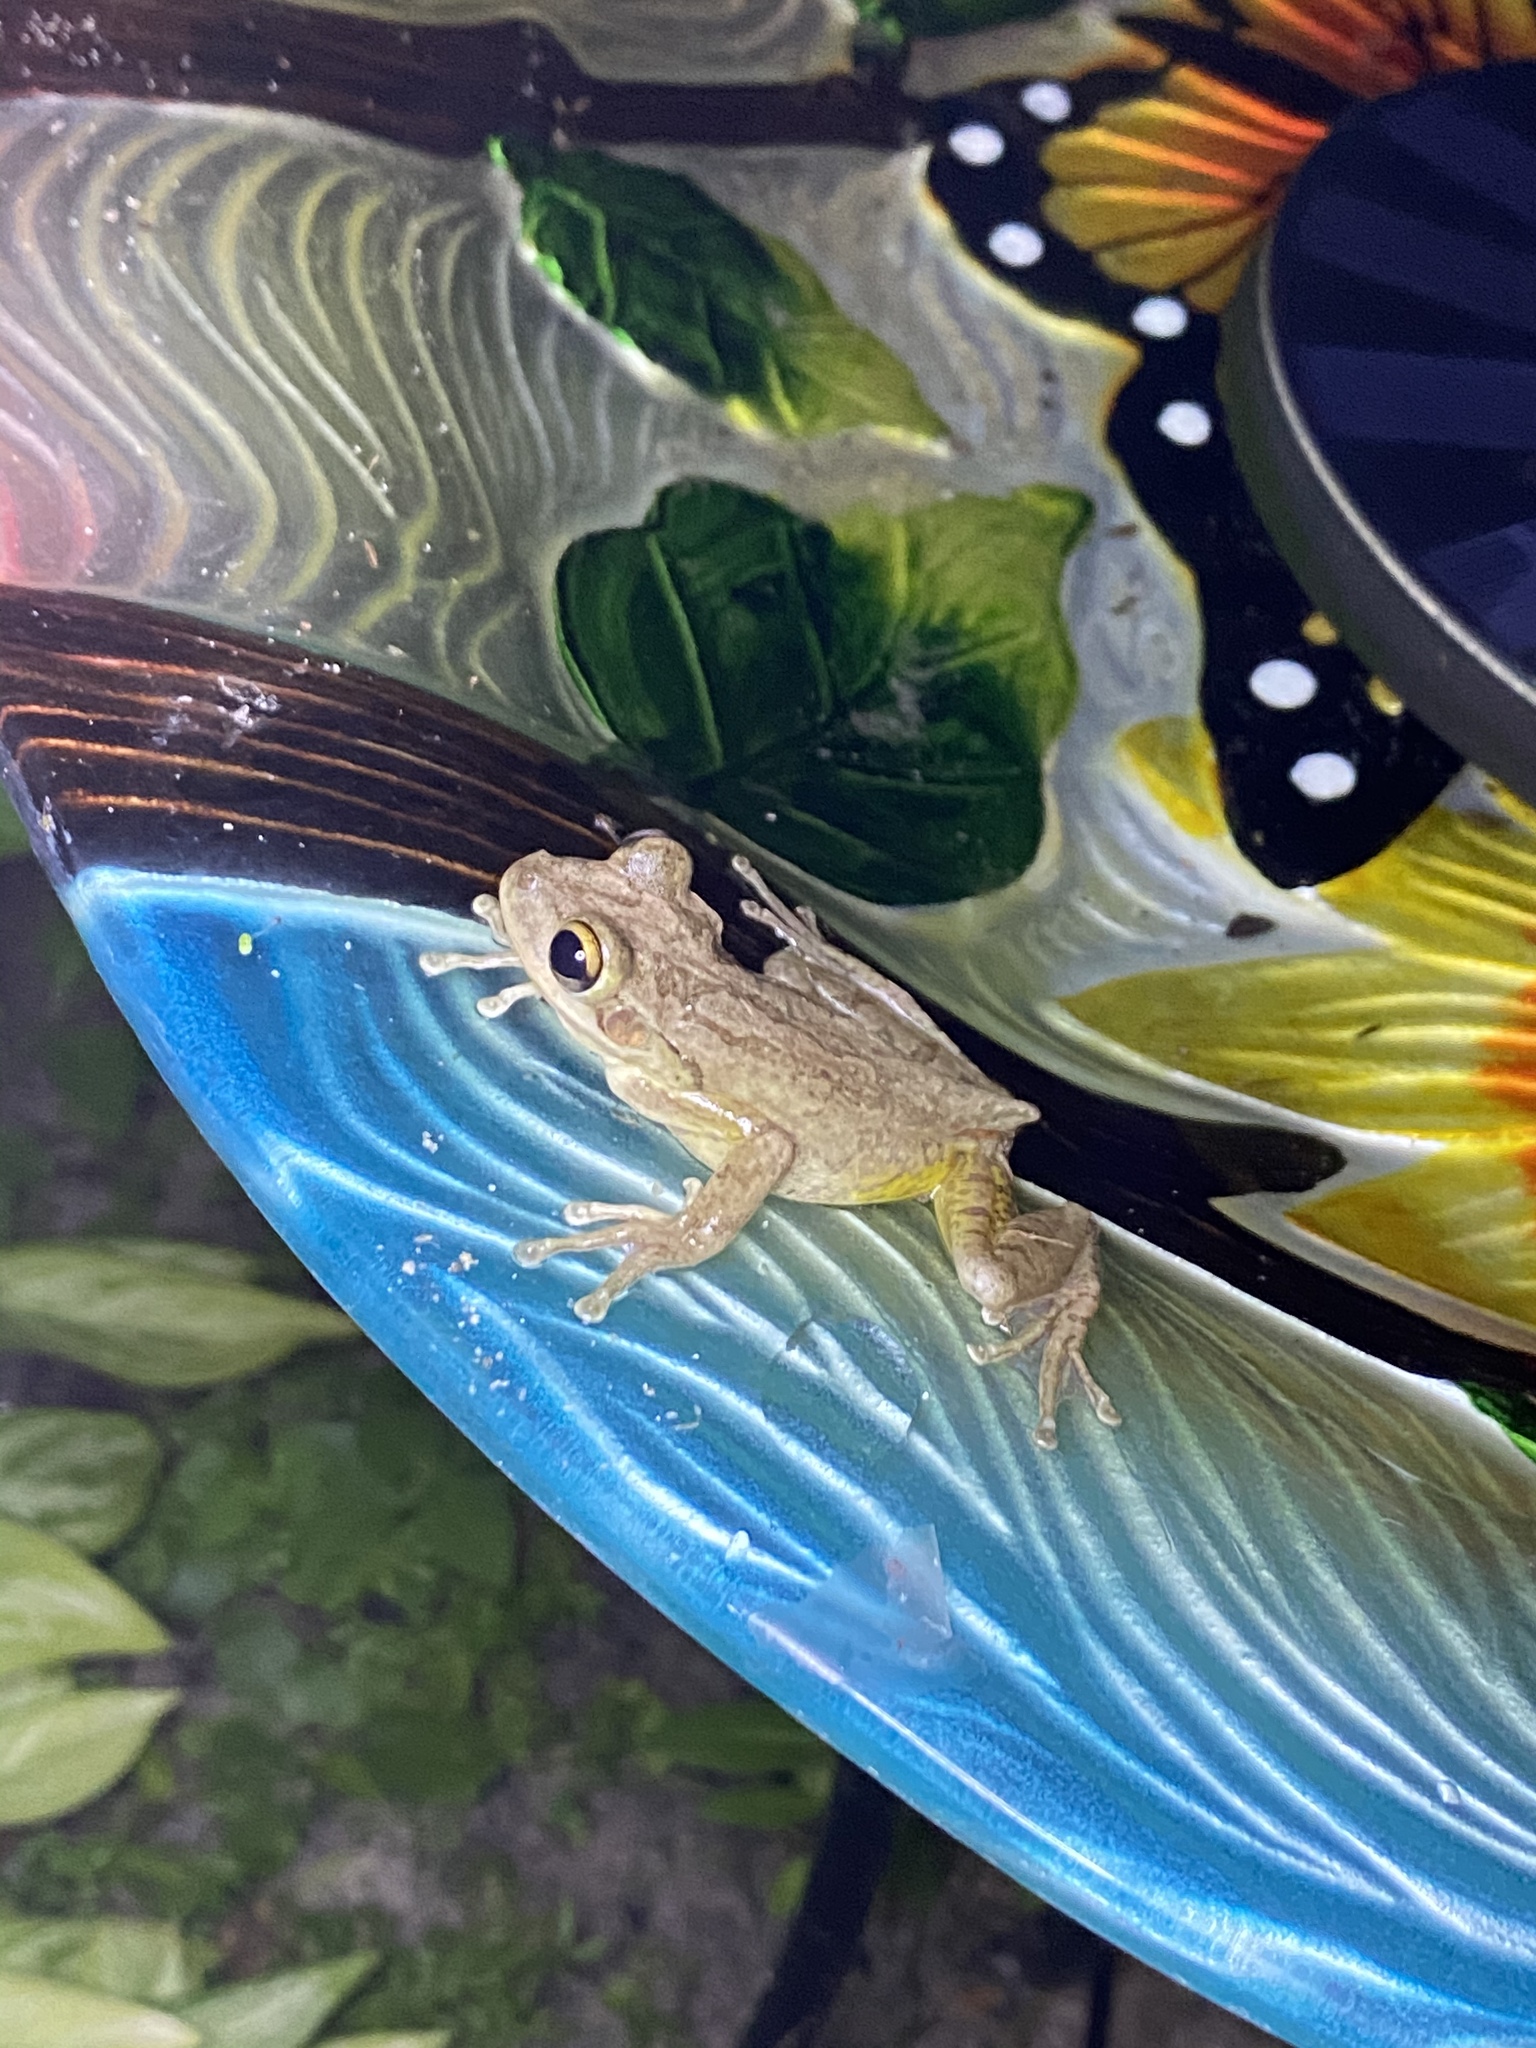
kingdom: Animalia
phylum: Chordata
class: Amphibia
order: Anura
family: Hylidae
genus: Osteopilus
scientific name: Osteopilus septentrionalis
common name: Cuban treefrog
